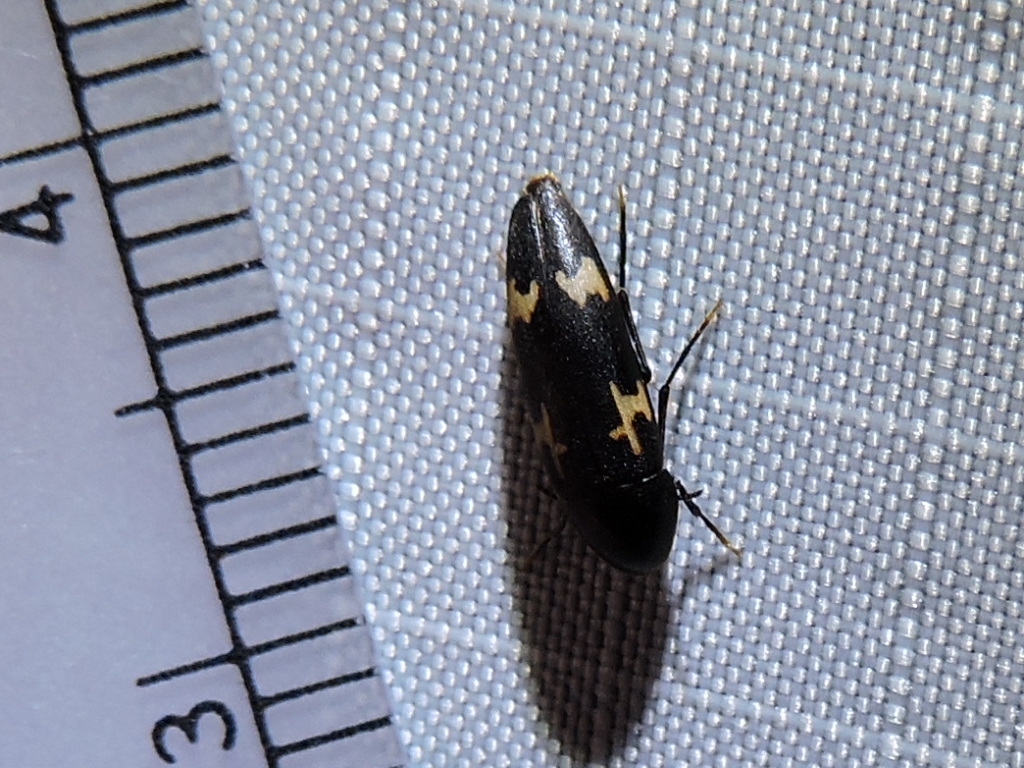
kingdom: Animalia
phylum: Arthropoda
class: Insecta
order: Coleoptera
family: Melandryidae
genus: Dircaea
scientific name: Dircaea liturata
